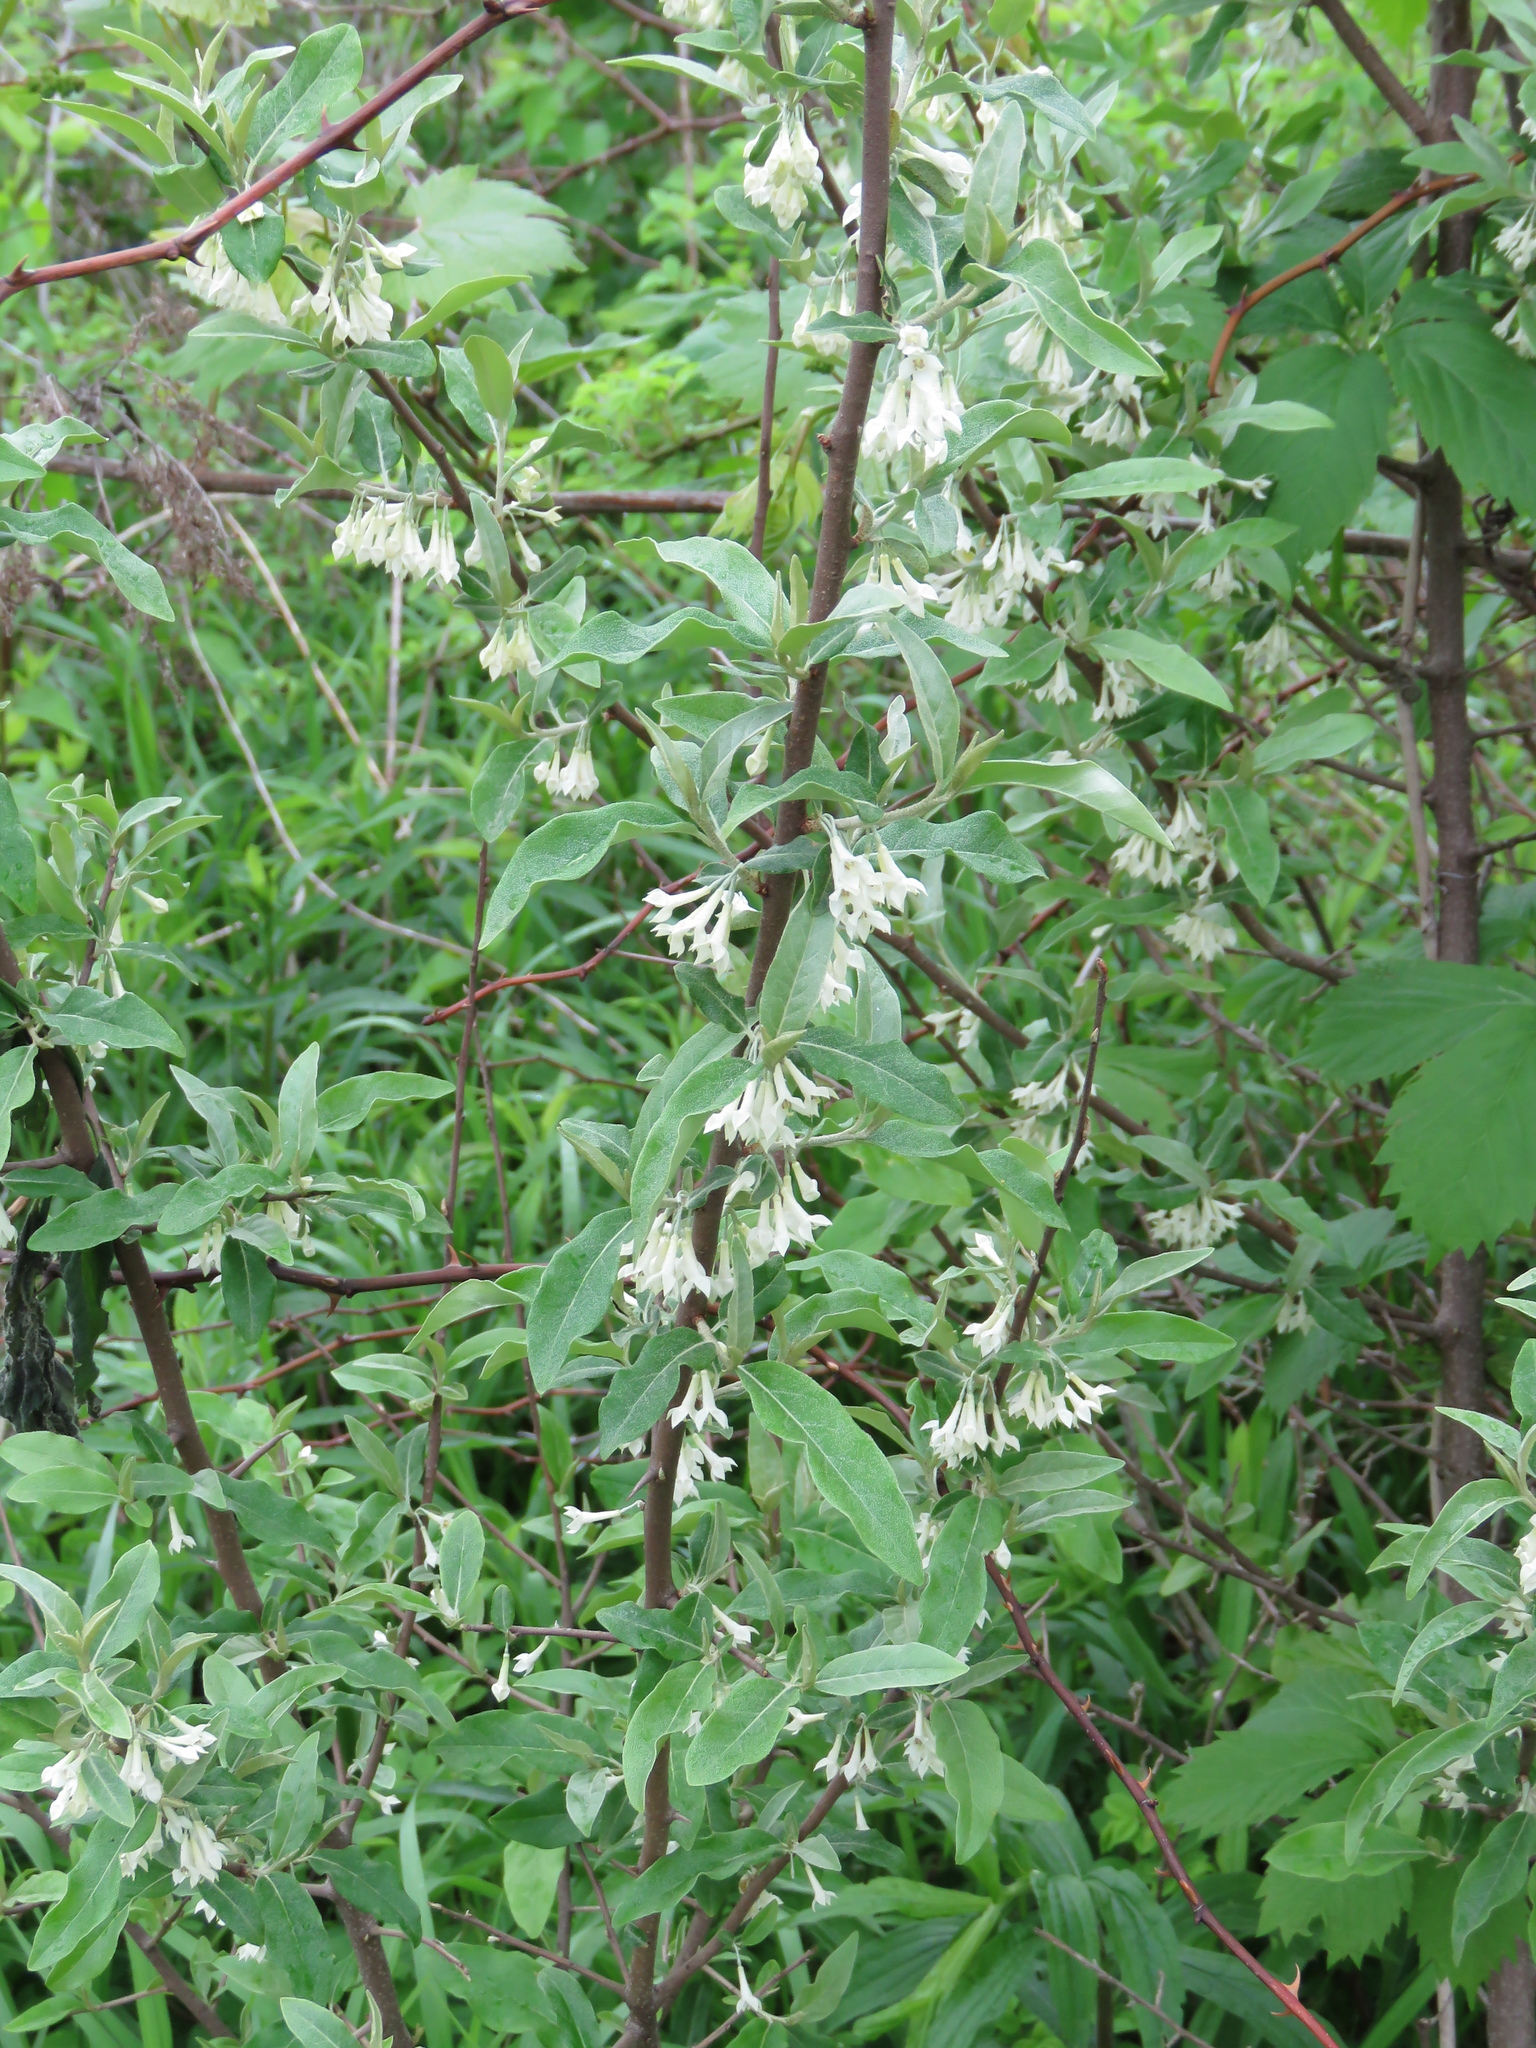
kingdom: Plantae
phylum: Tracheophyta
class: Magnoliopsida
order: Rosales
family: Elaeagnaceae
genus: Elaeagnus
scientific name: Elaeagnus umbellata
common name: Autumn olive
